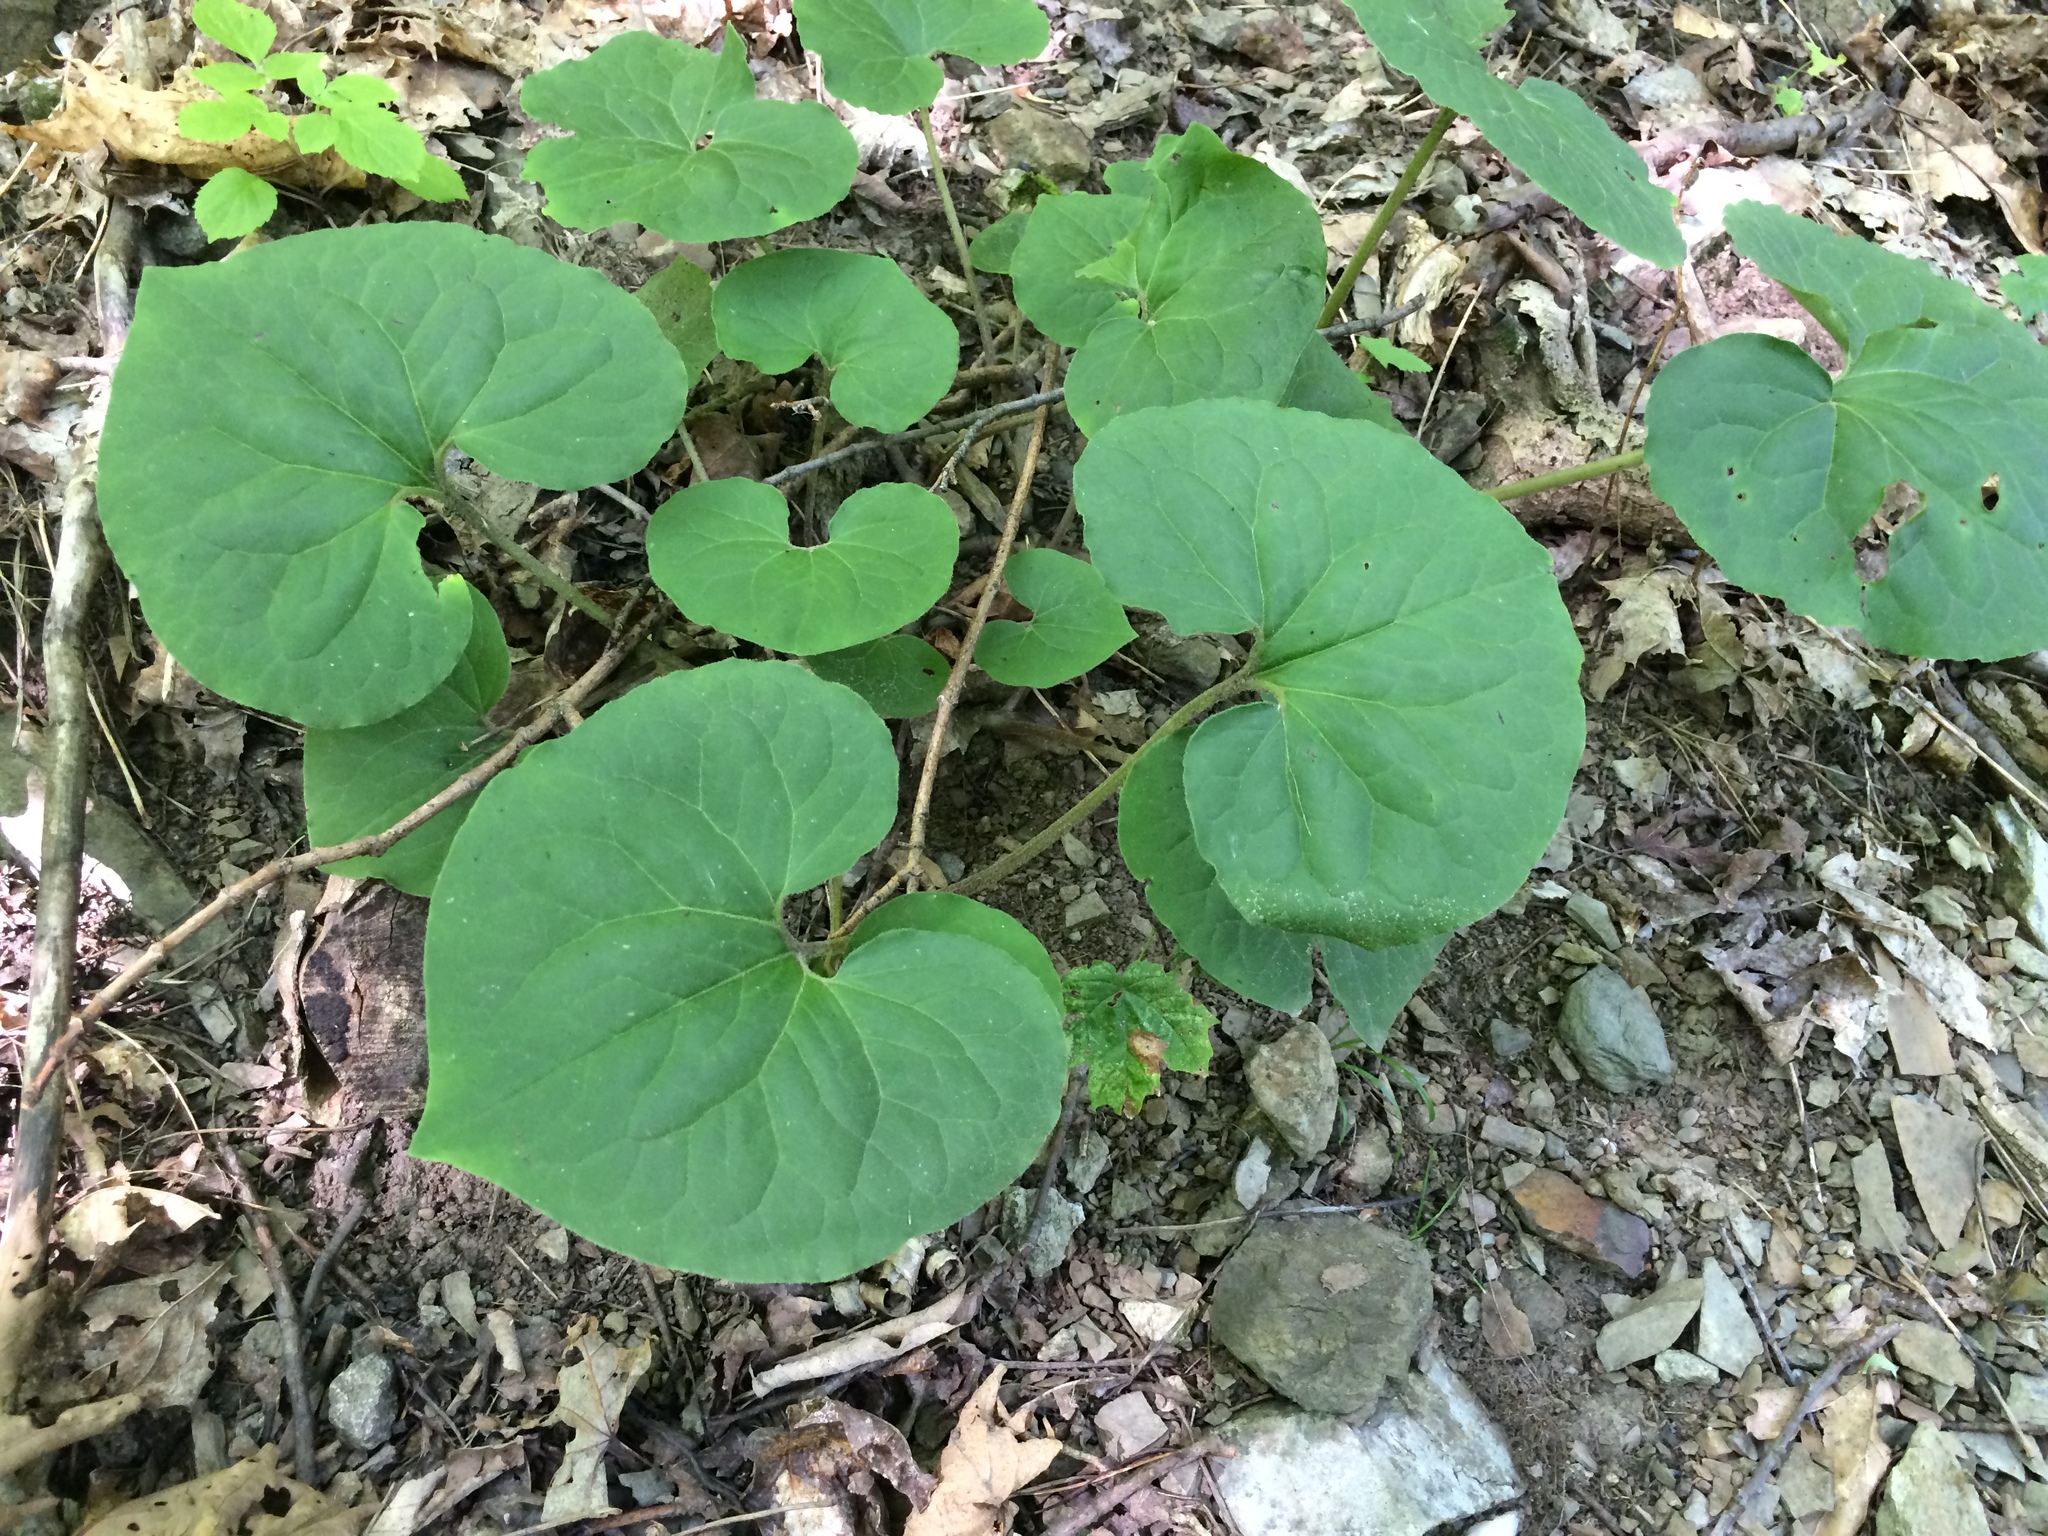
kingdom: Plantae
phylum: Tracheophyta
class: Magnoliopsida
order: Piperales
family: Aristolochiaceae
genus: Asarum
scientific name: Asarum canadense
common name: Wild ginger
